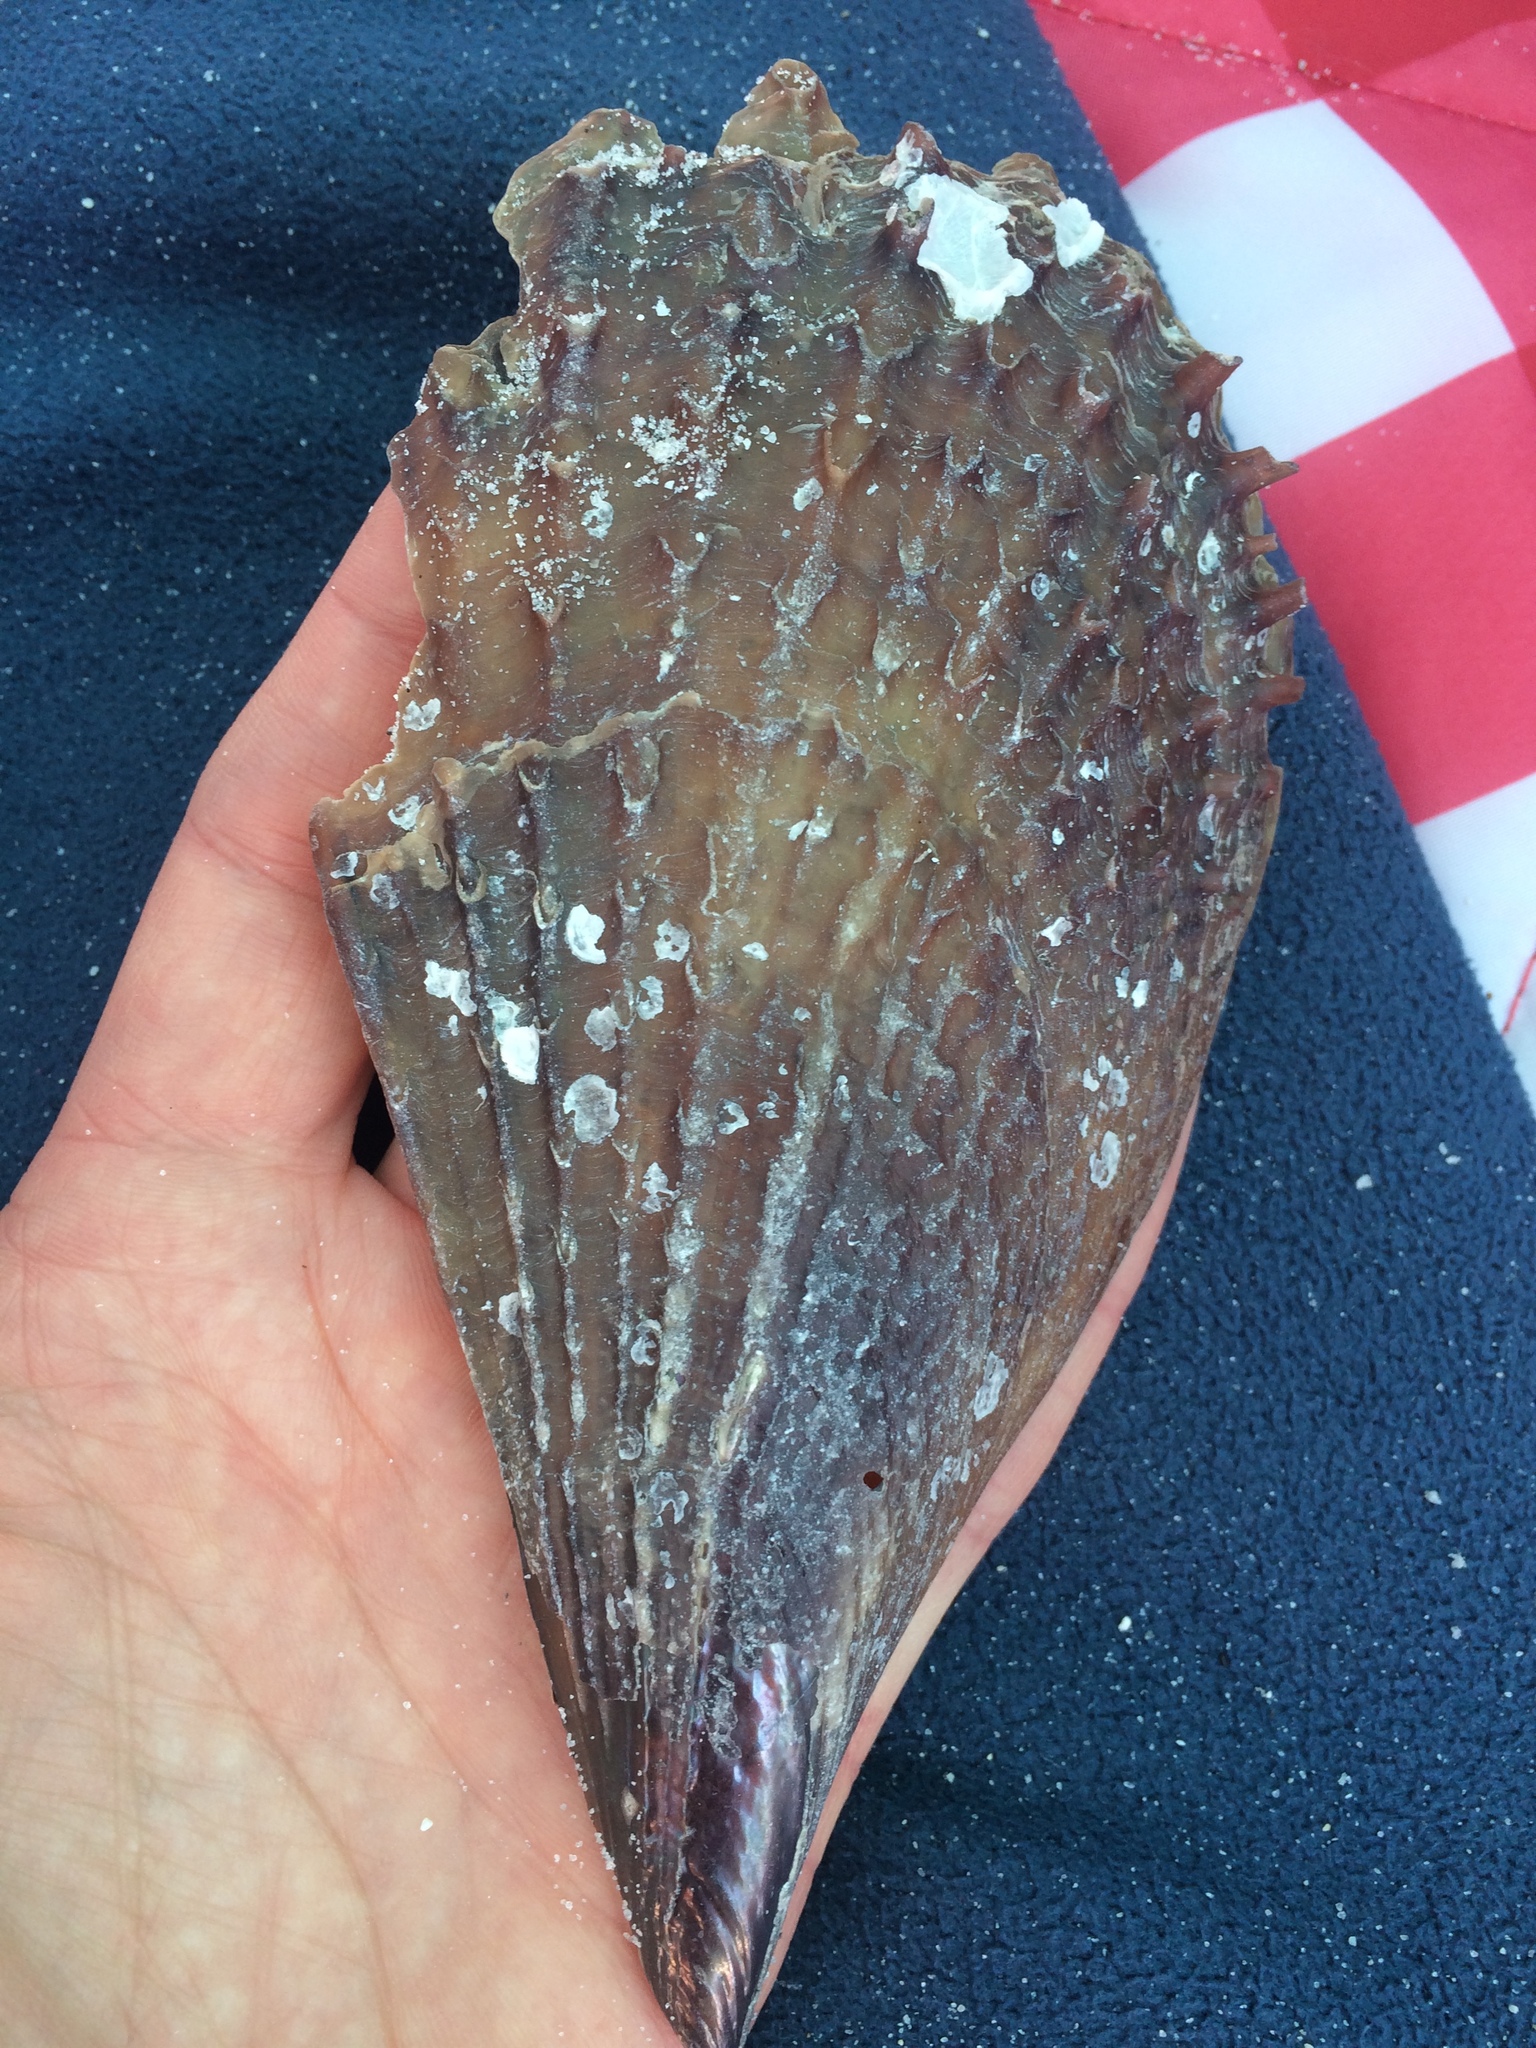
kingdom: Animalia
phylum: Mollusca
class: Bivalvia
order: Ostreida
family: Pinnidae
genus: Atrina
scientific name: Atrina rigida
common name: Stiff penshell
